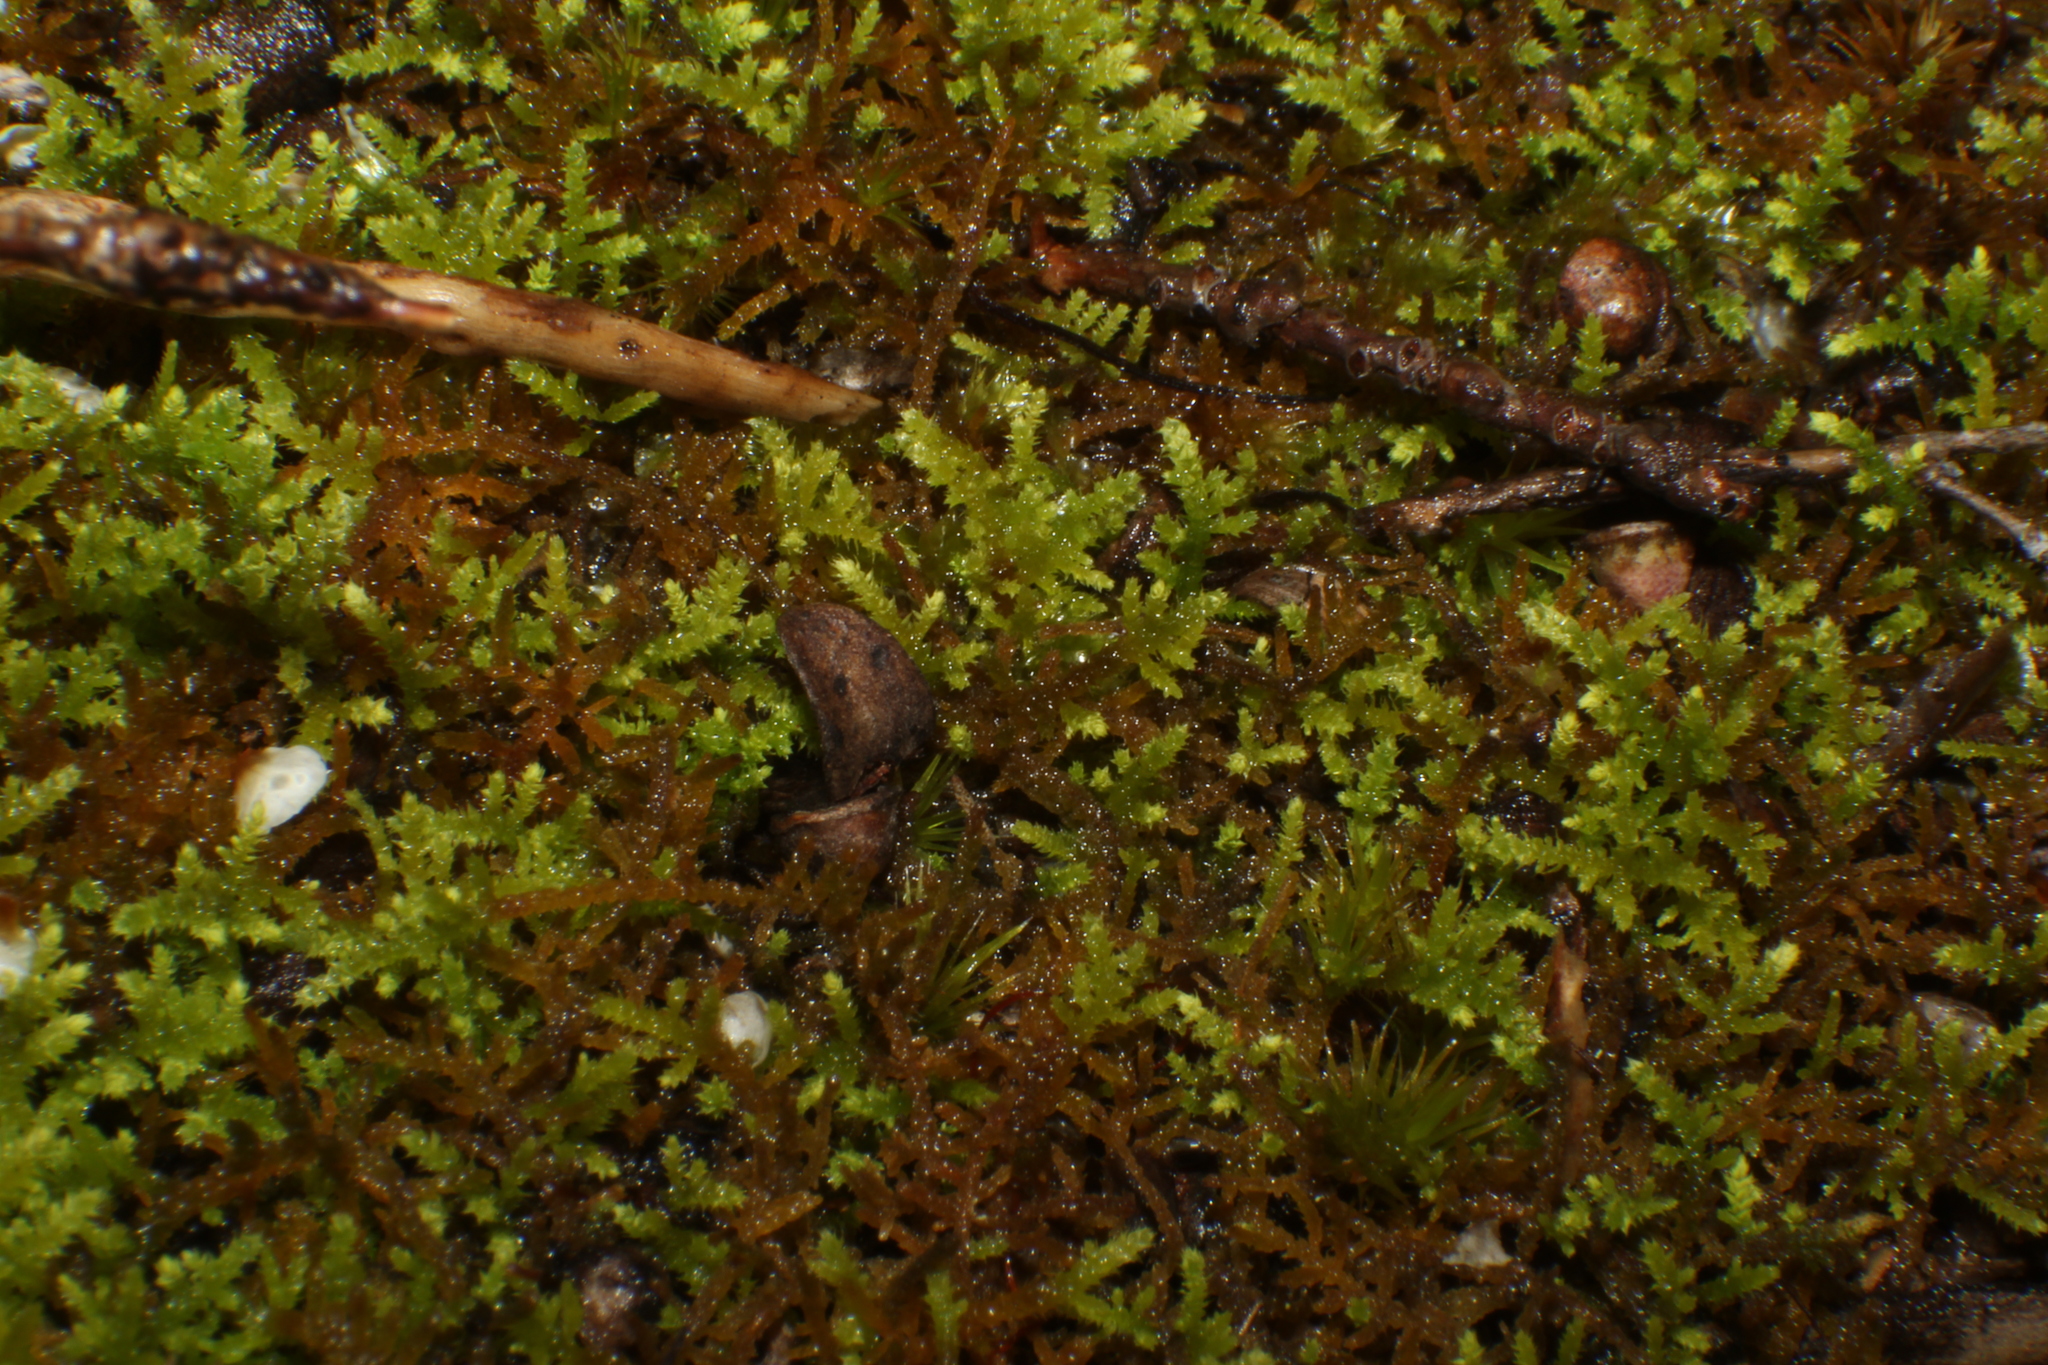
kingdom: Plantae
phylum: Bryophyta
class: Bryopsida
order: Hypnales
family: Thuidiaceae
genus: Thuidiopsis
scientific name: Thuidiopsis sparsa
